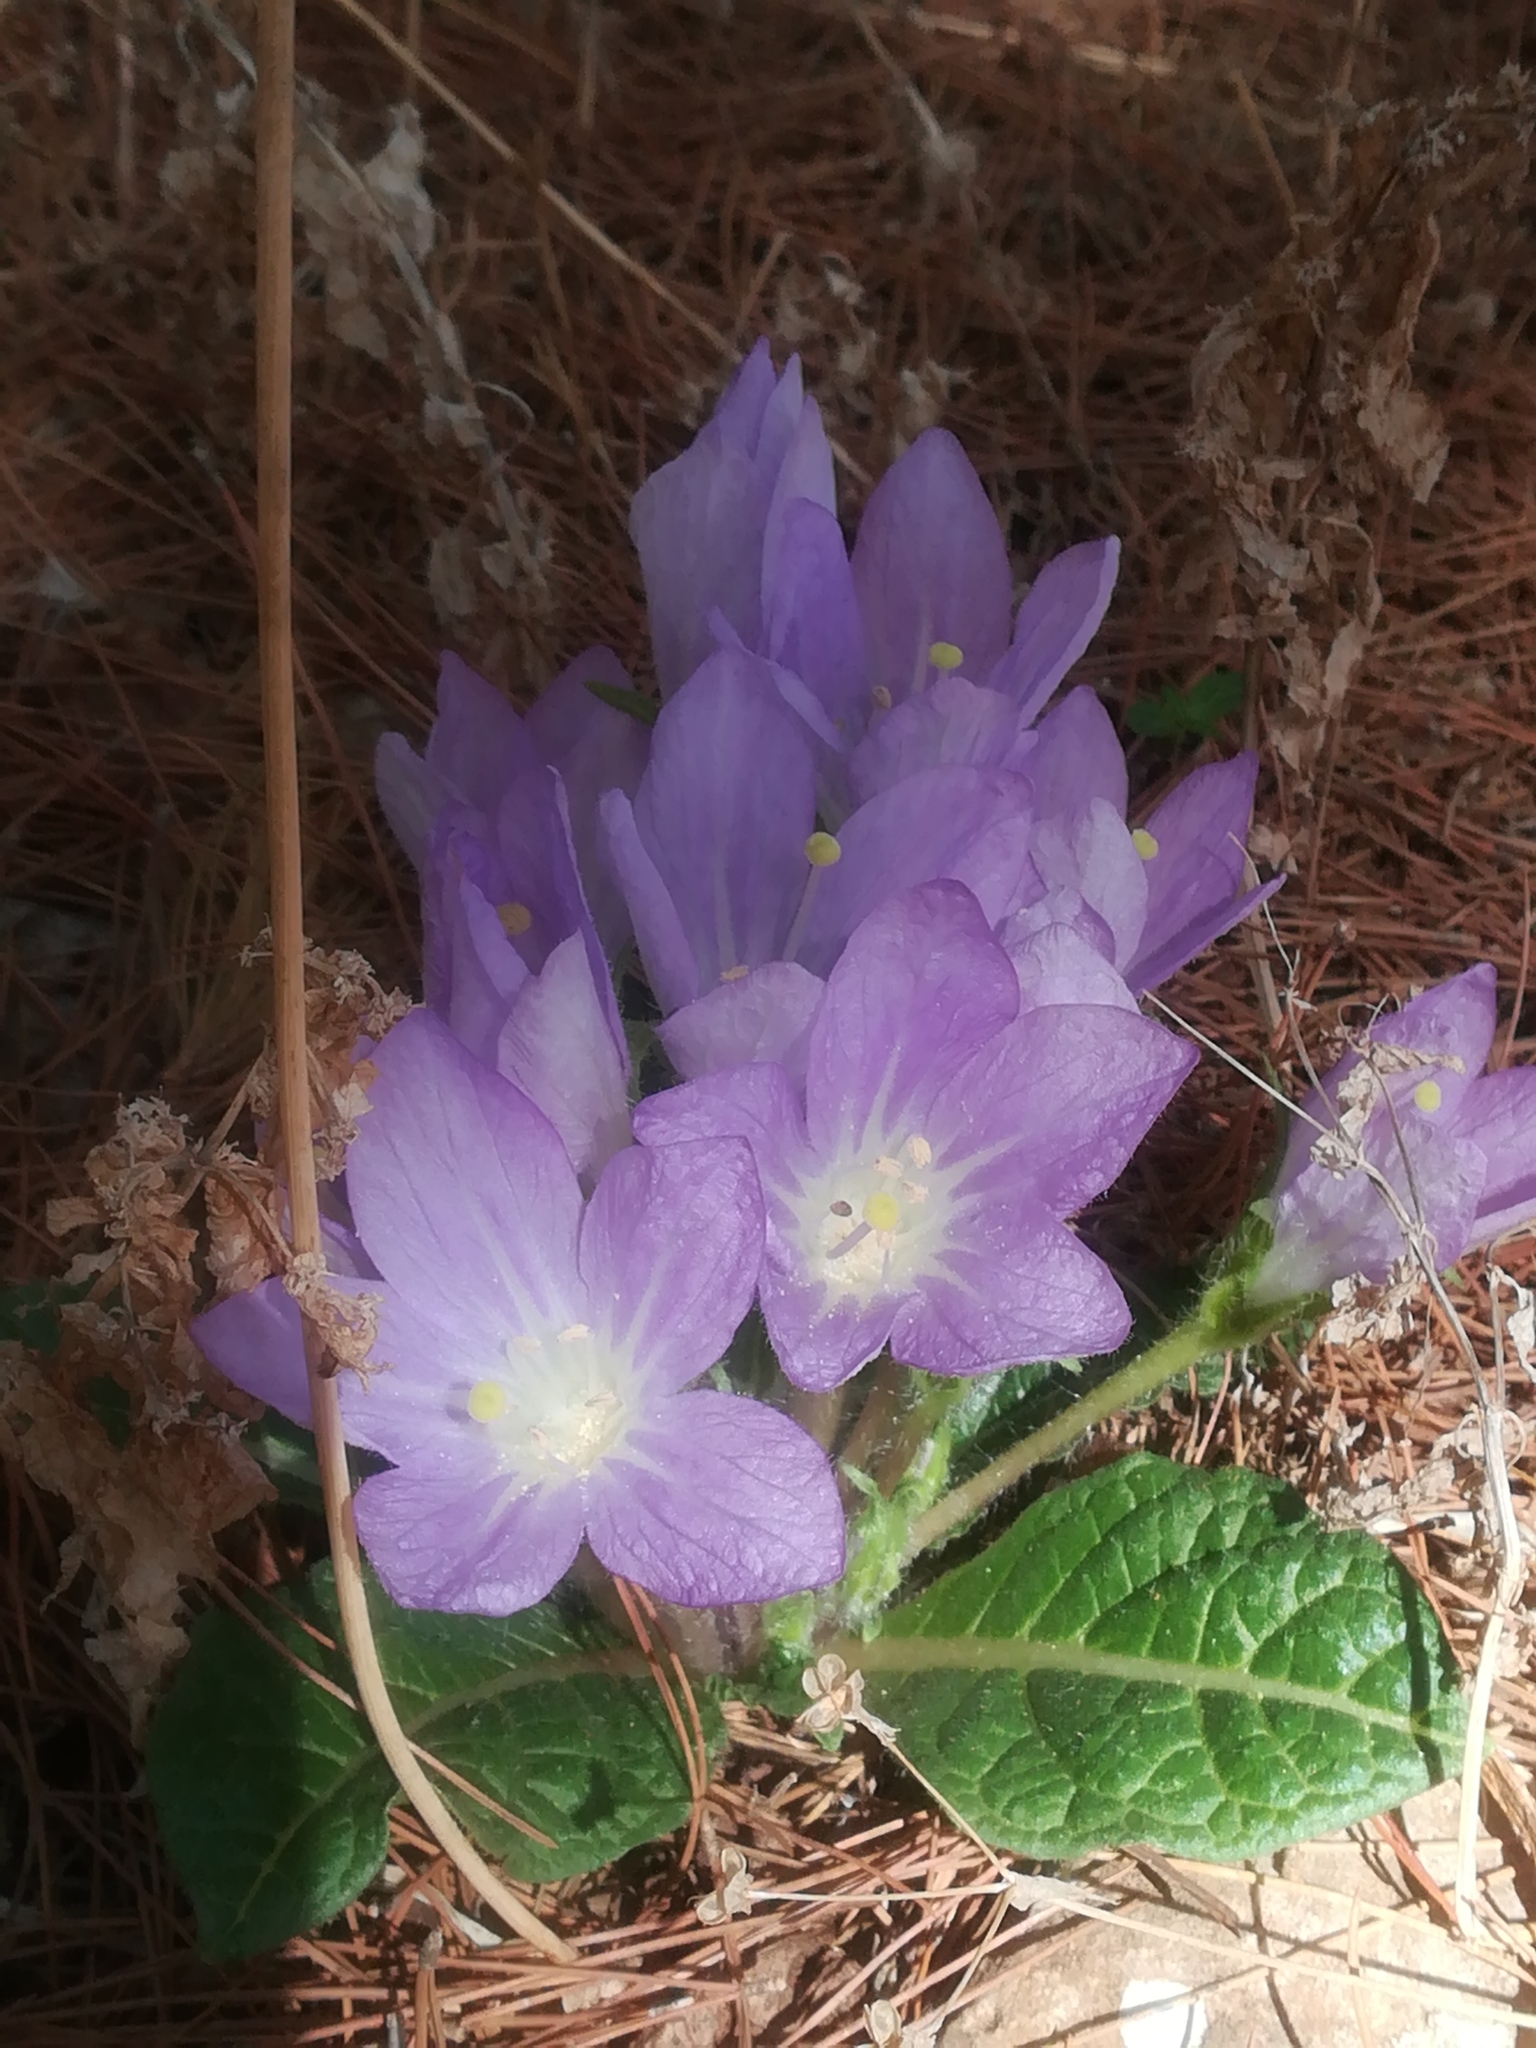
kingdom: Plantae
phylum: Tracheophyta
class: Magnoliopsida
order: Solanales
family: Solanaceae
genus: Mandragora
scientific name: Mandragora officinarum
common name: Mandrake
